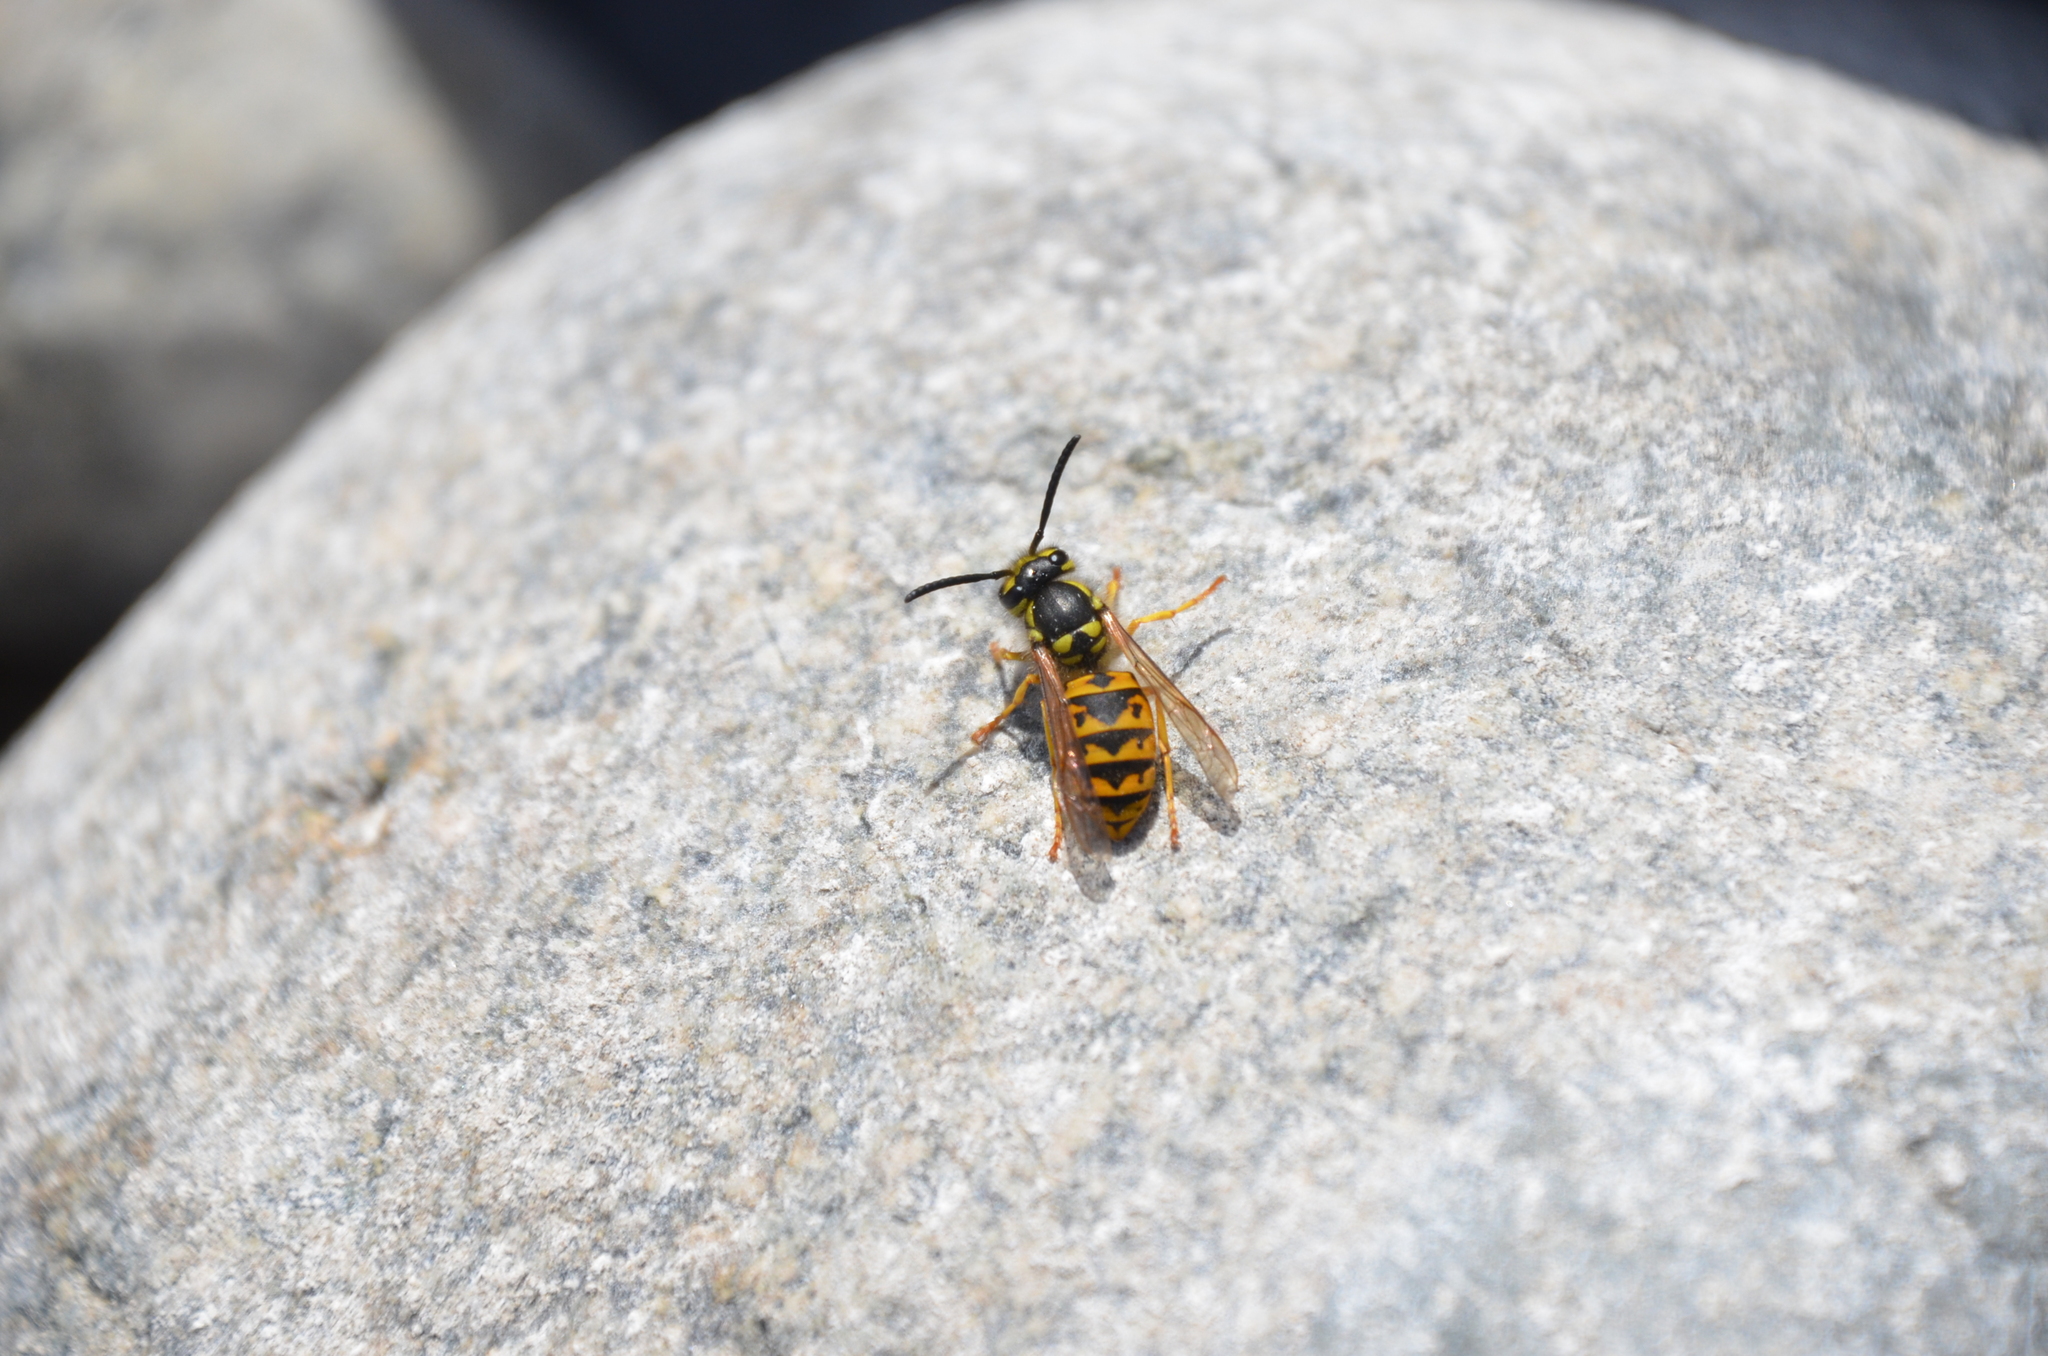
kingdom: Animalia
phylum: Arthropoda
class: Insecta
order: Hymenoptera
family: Vespidae
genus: Vespula
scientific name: Vespula germanica
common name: German wasp
